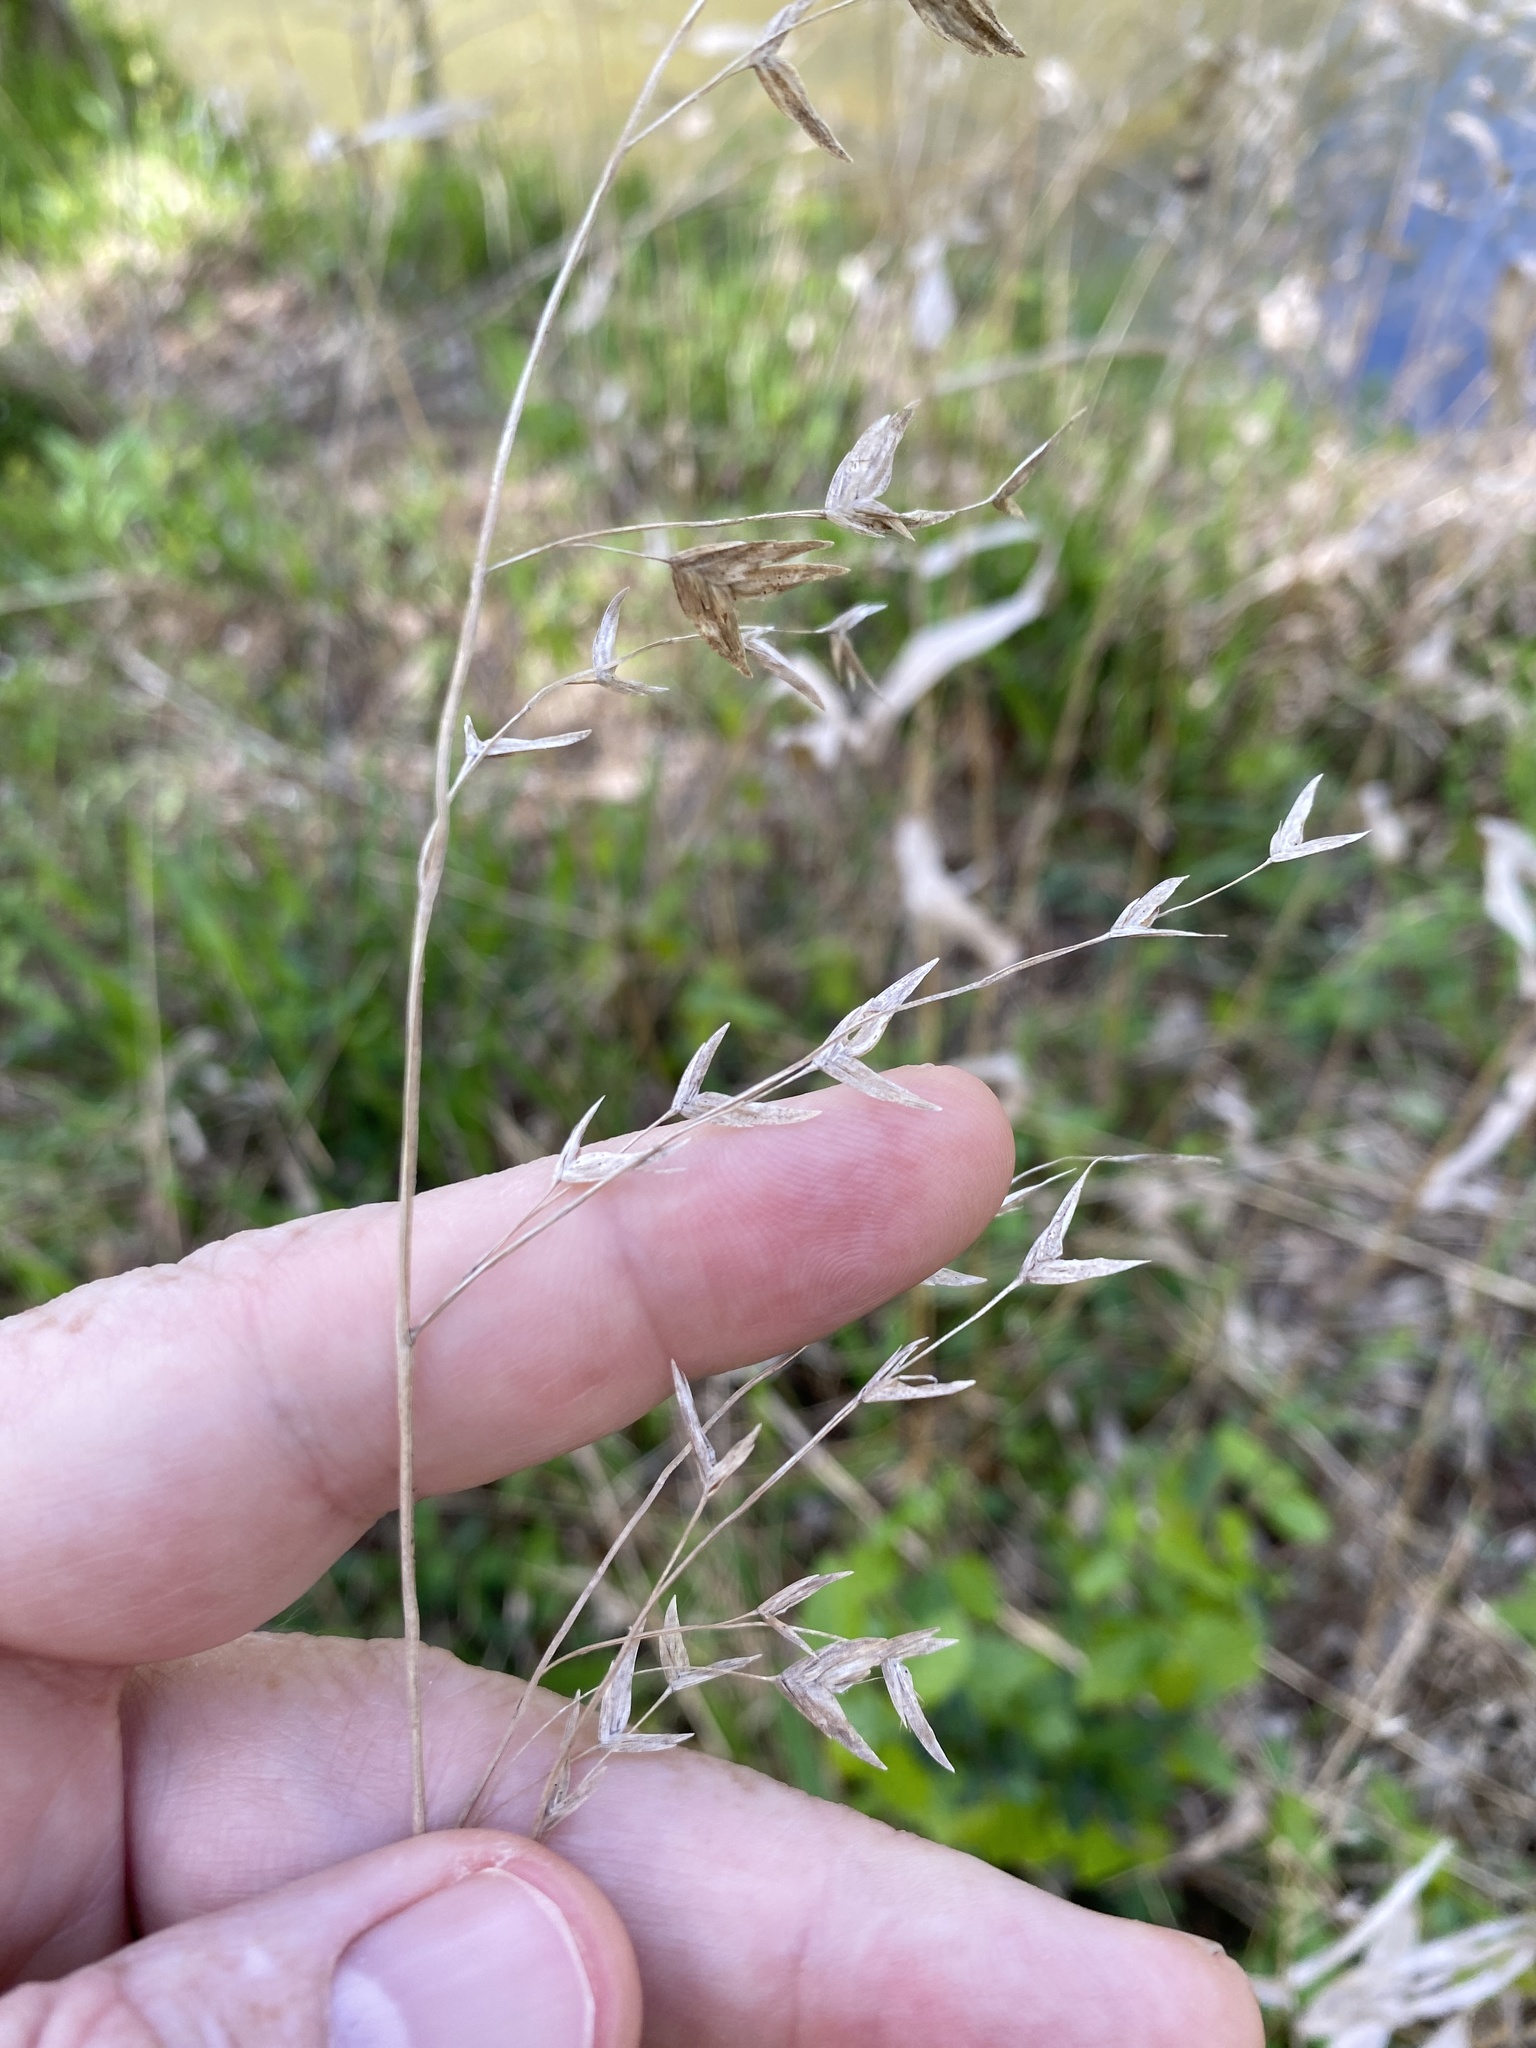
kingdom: Plantae
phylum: Tracheophyta
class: Liliopsida
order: Poales
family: Poaceae
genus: Chasmanthium
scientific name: Chasmanthium latifolium
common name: Broad-leaved chasmanthium
